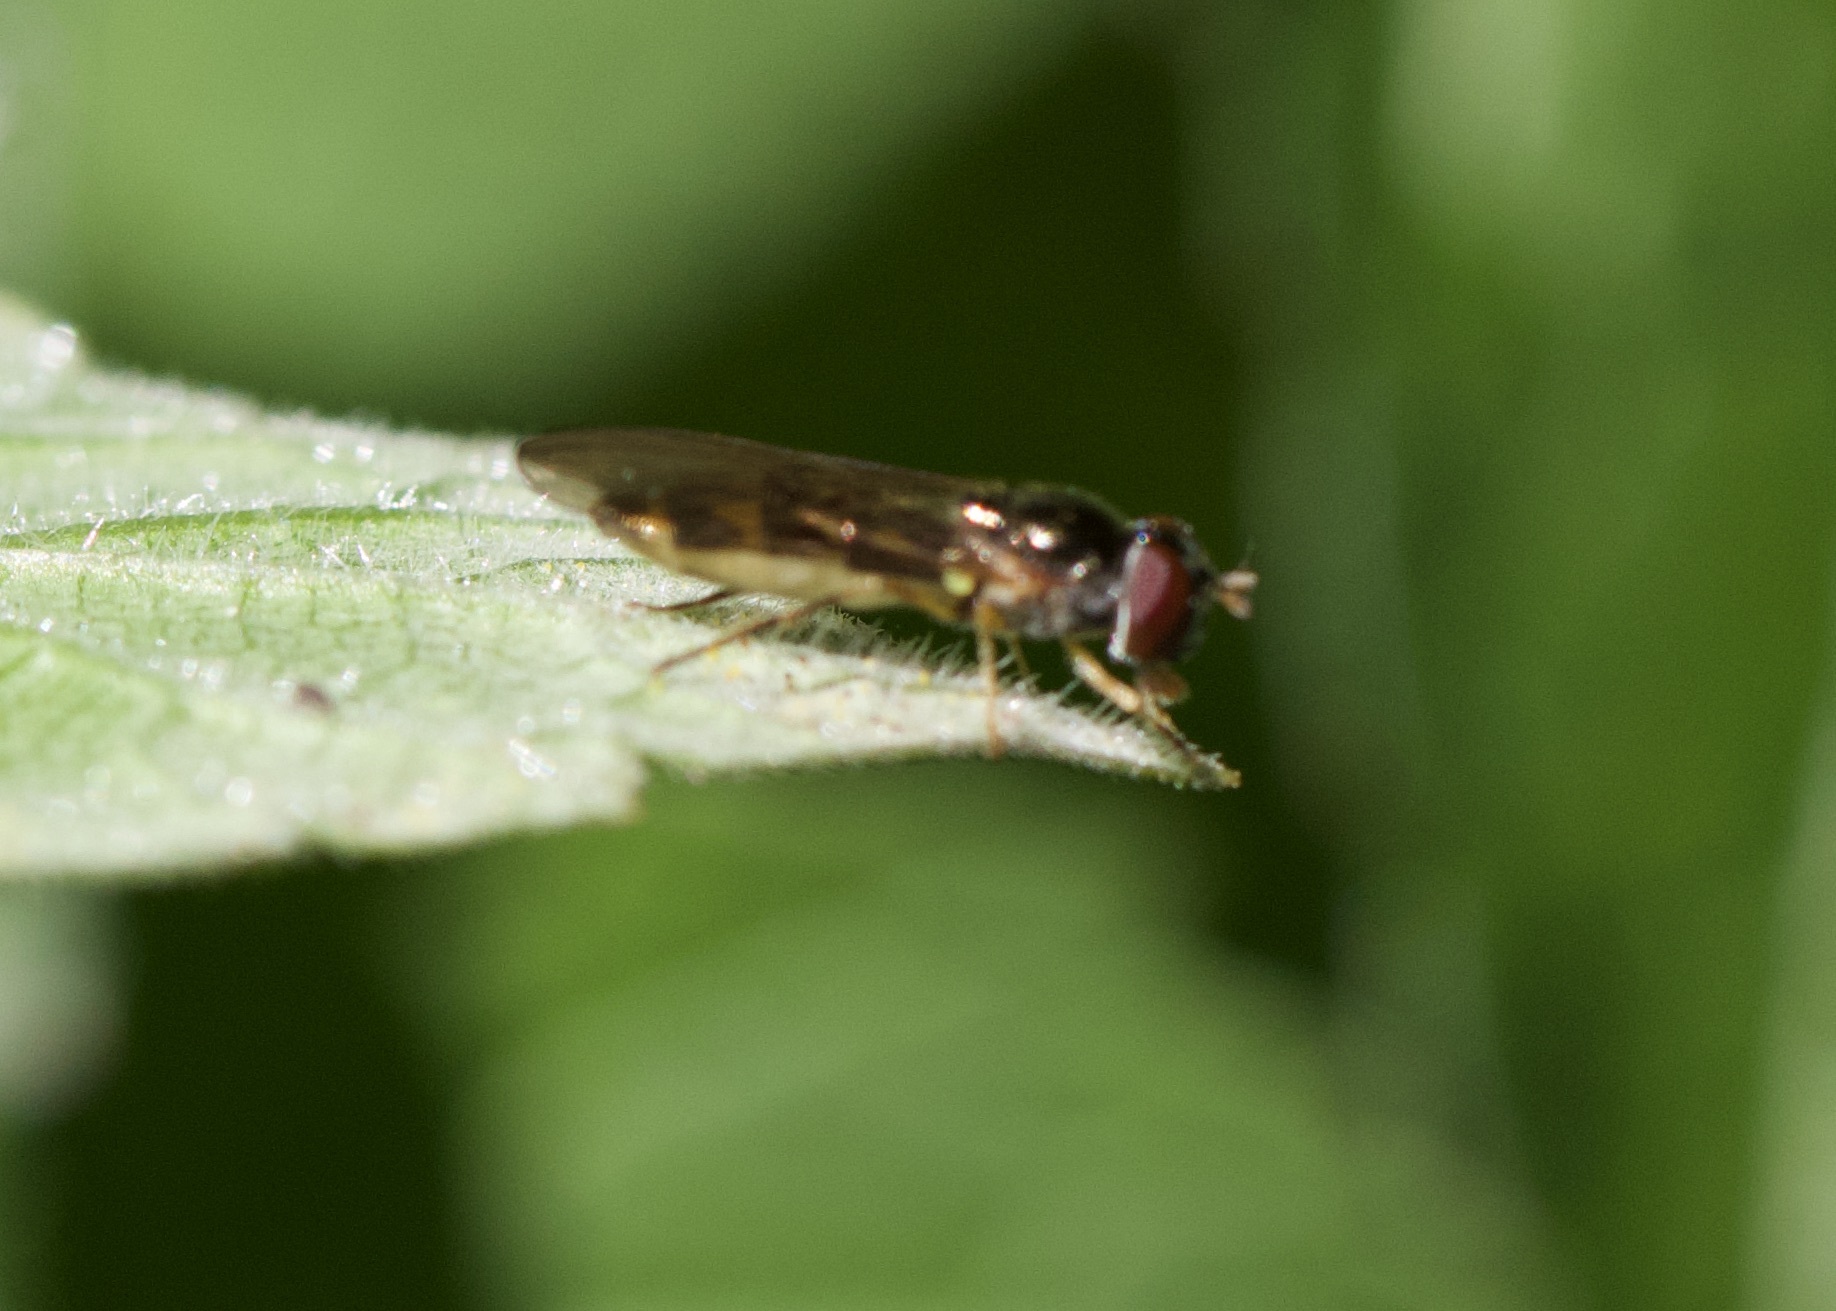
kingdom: Animalia
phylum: Arthropoda
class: Insecta
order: Diptera
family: Syrphidae
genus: Melanostoma
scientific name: Melanostoma scalare
